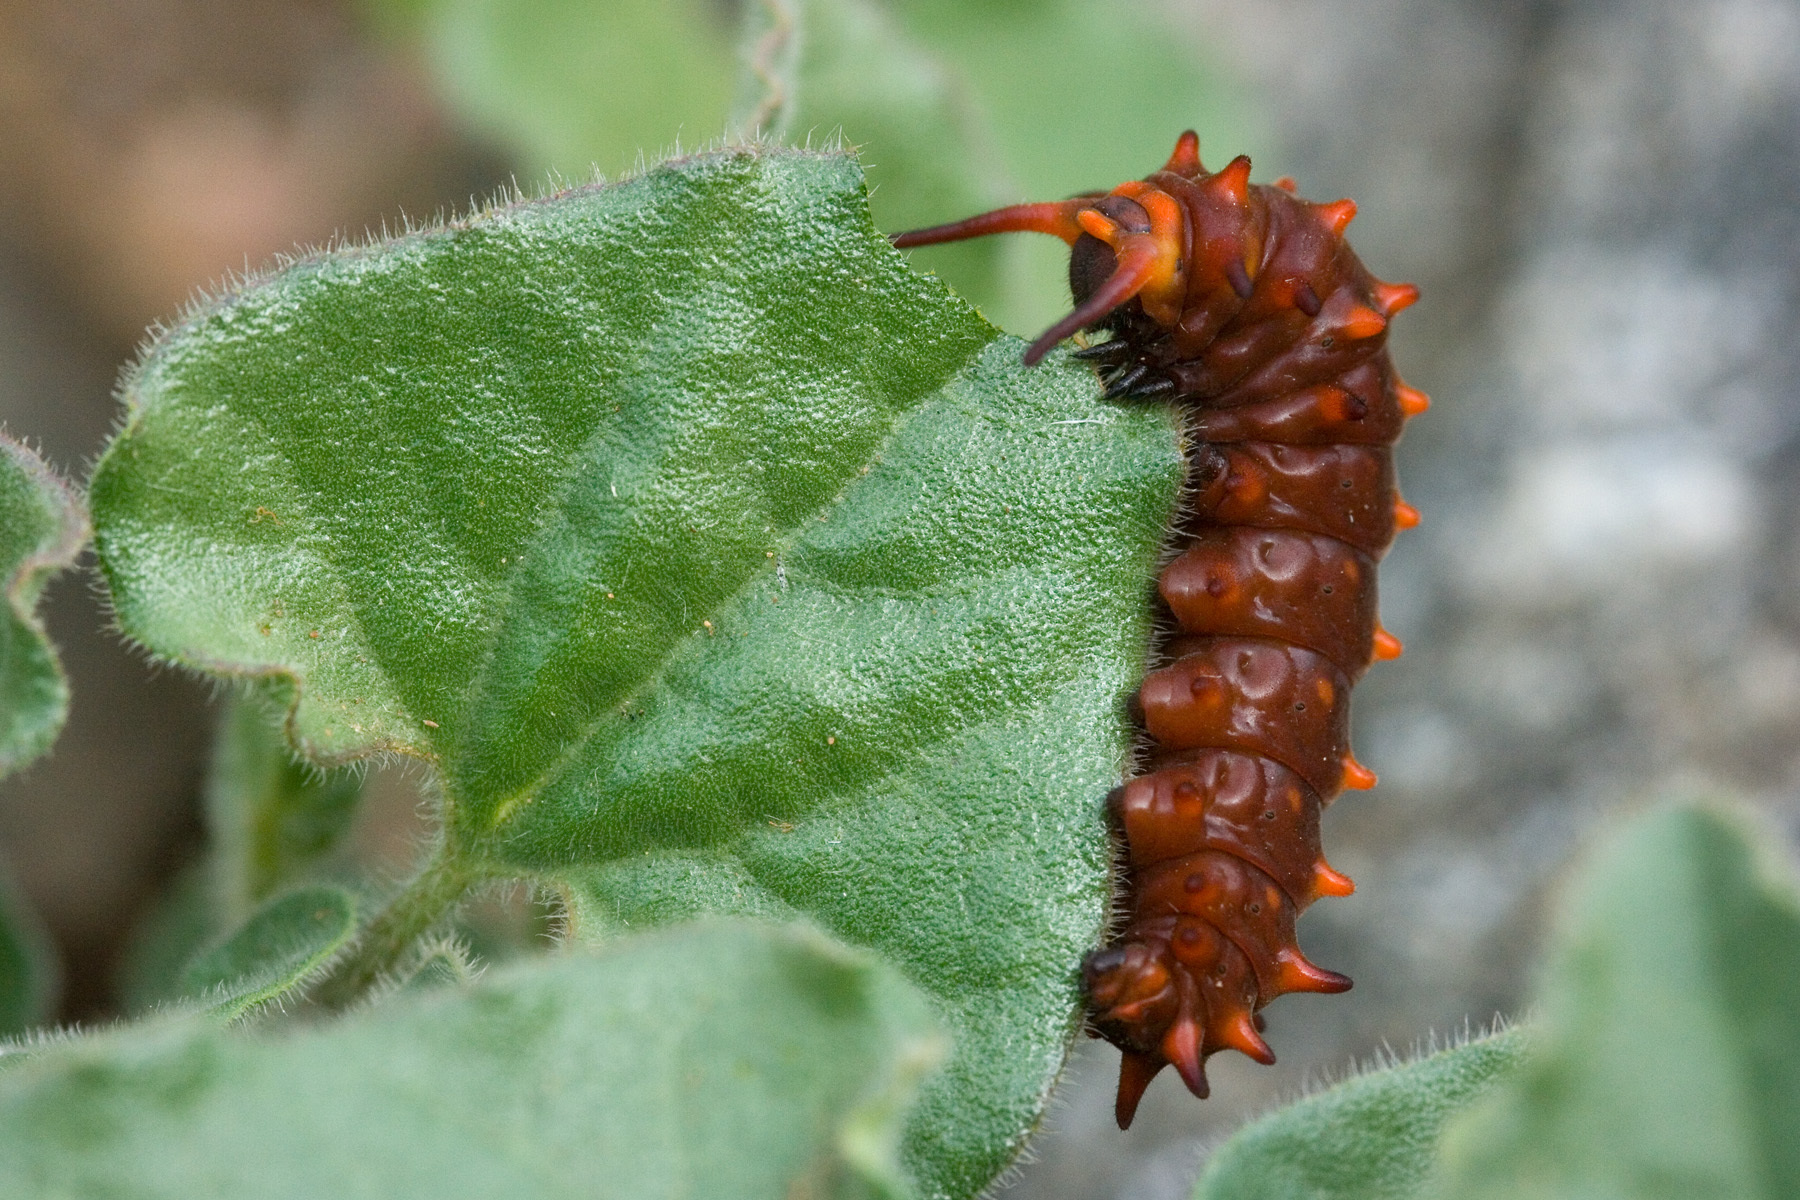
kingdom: Animalia
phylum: Arthropoda
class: Insecta
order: Lepidoptera
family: Papilionidae
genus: Battus
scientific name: Battus philenor
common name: Pipevine swallowtail
